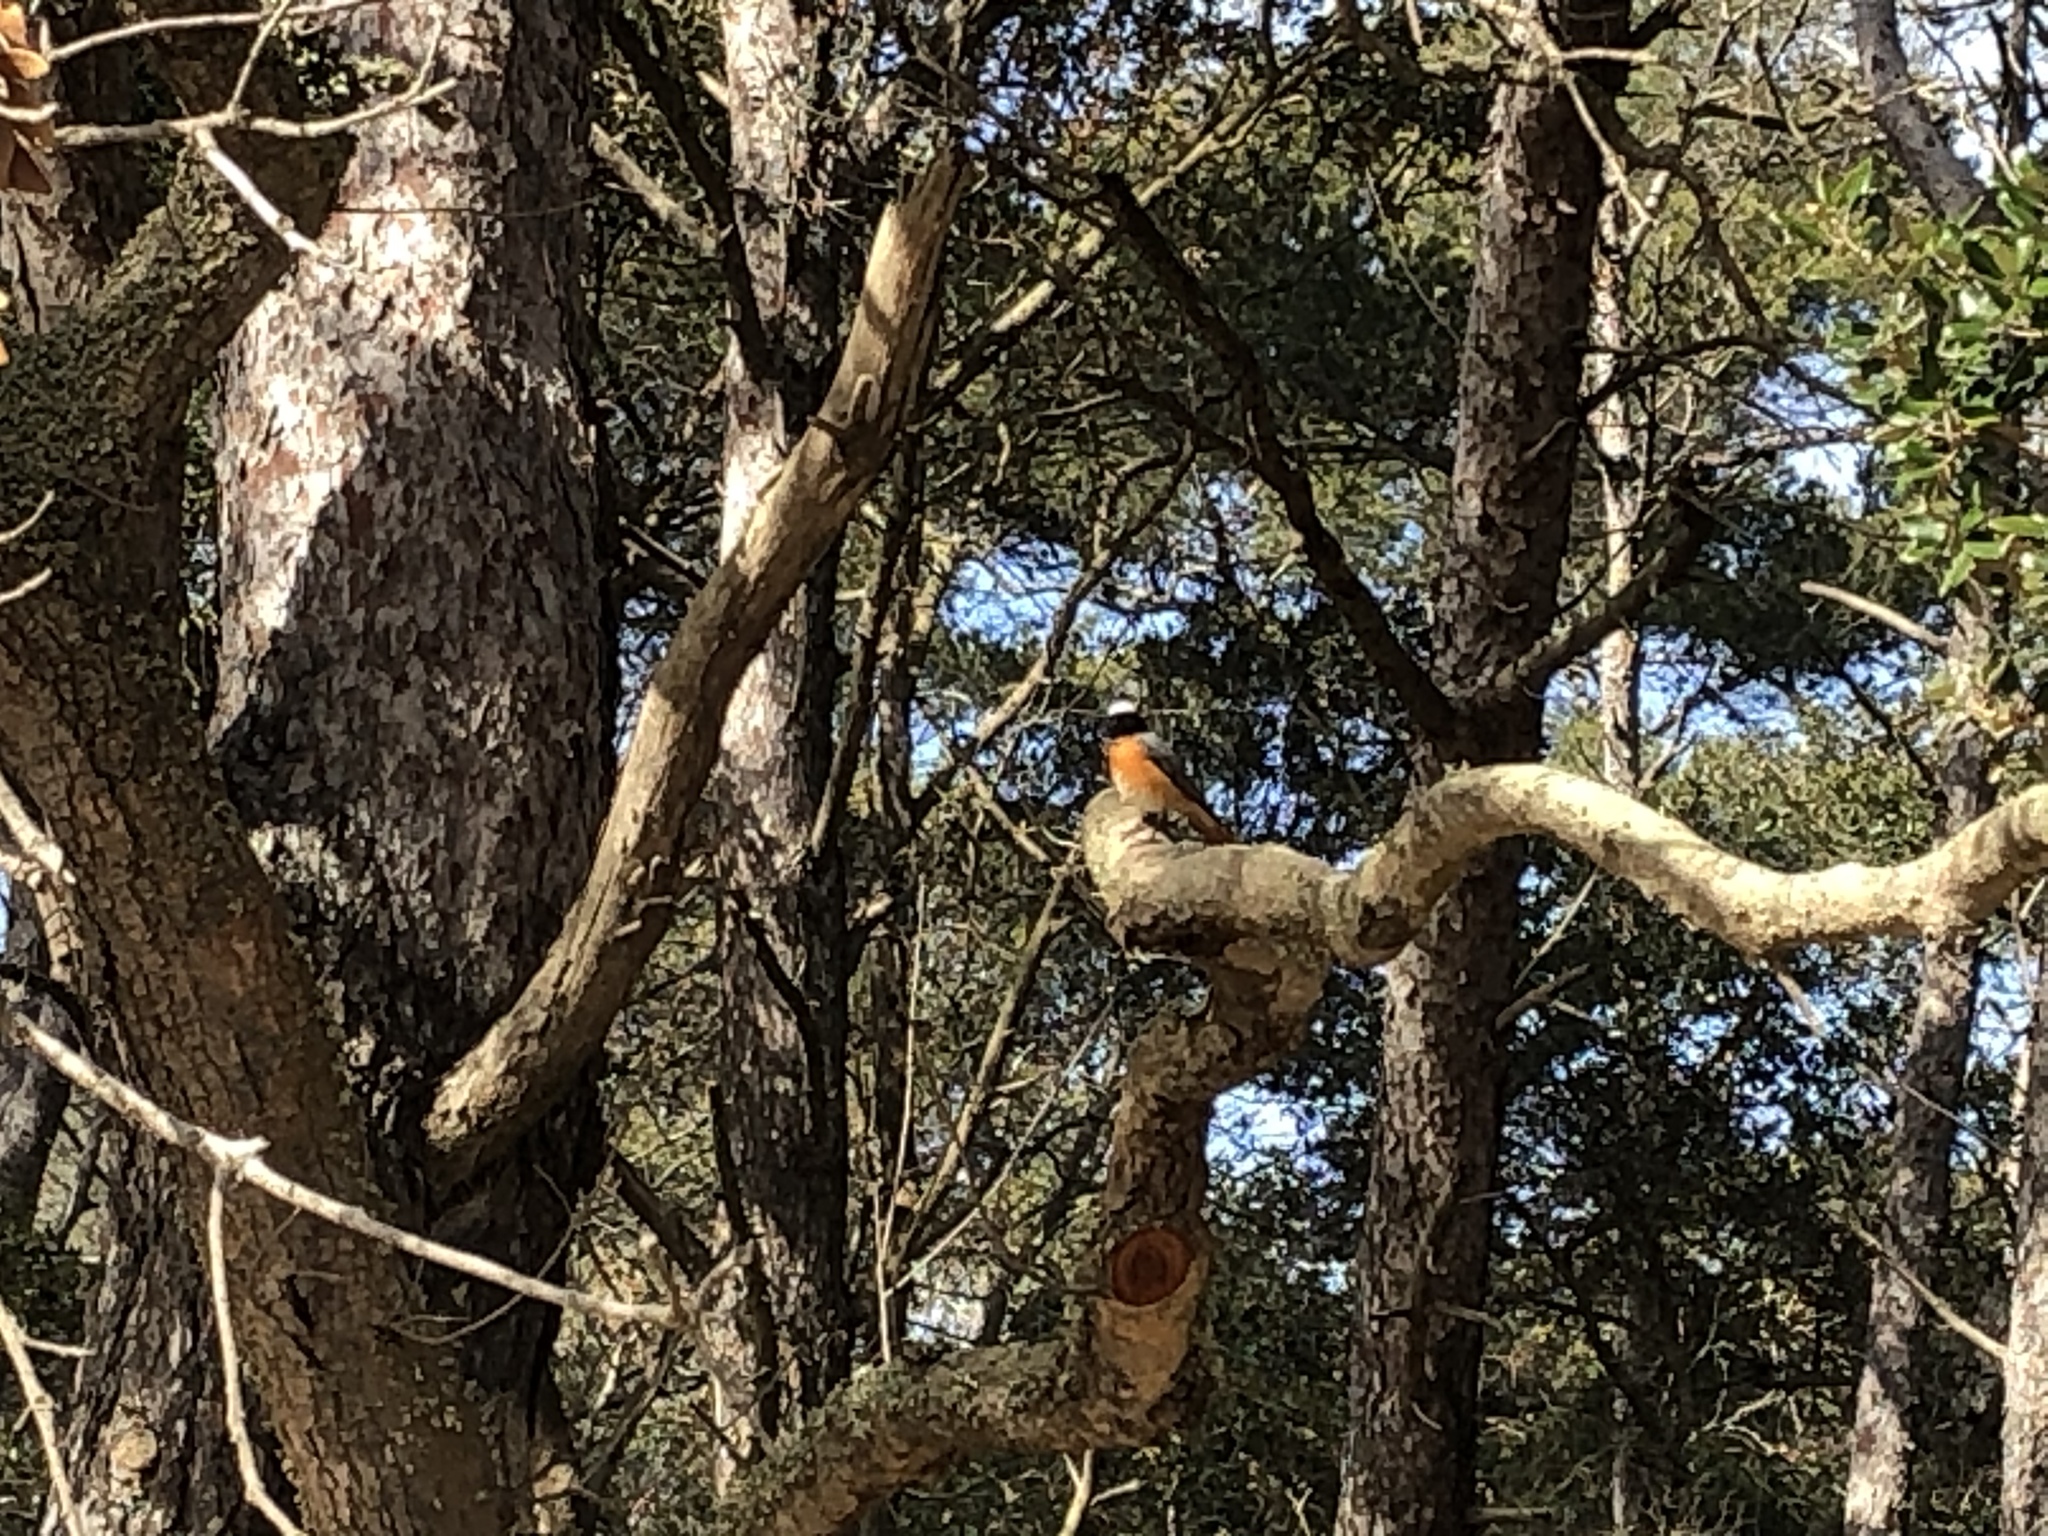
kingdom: Animalia
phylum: Chordata
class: Aves
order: Passeriformes
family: Muscicapidae
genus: Phoenicurus
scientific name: Phoenicurus phoenicurus
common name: Common redstart
